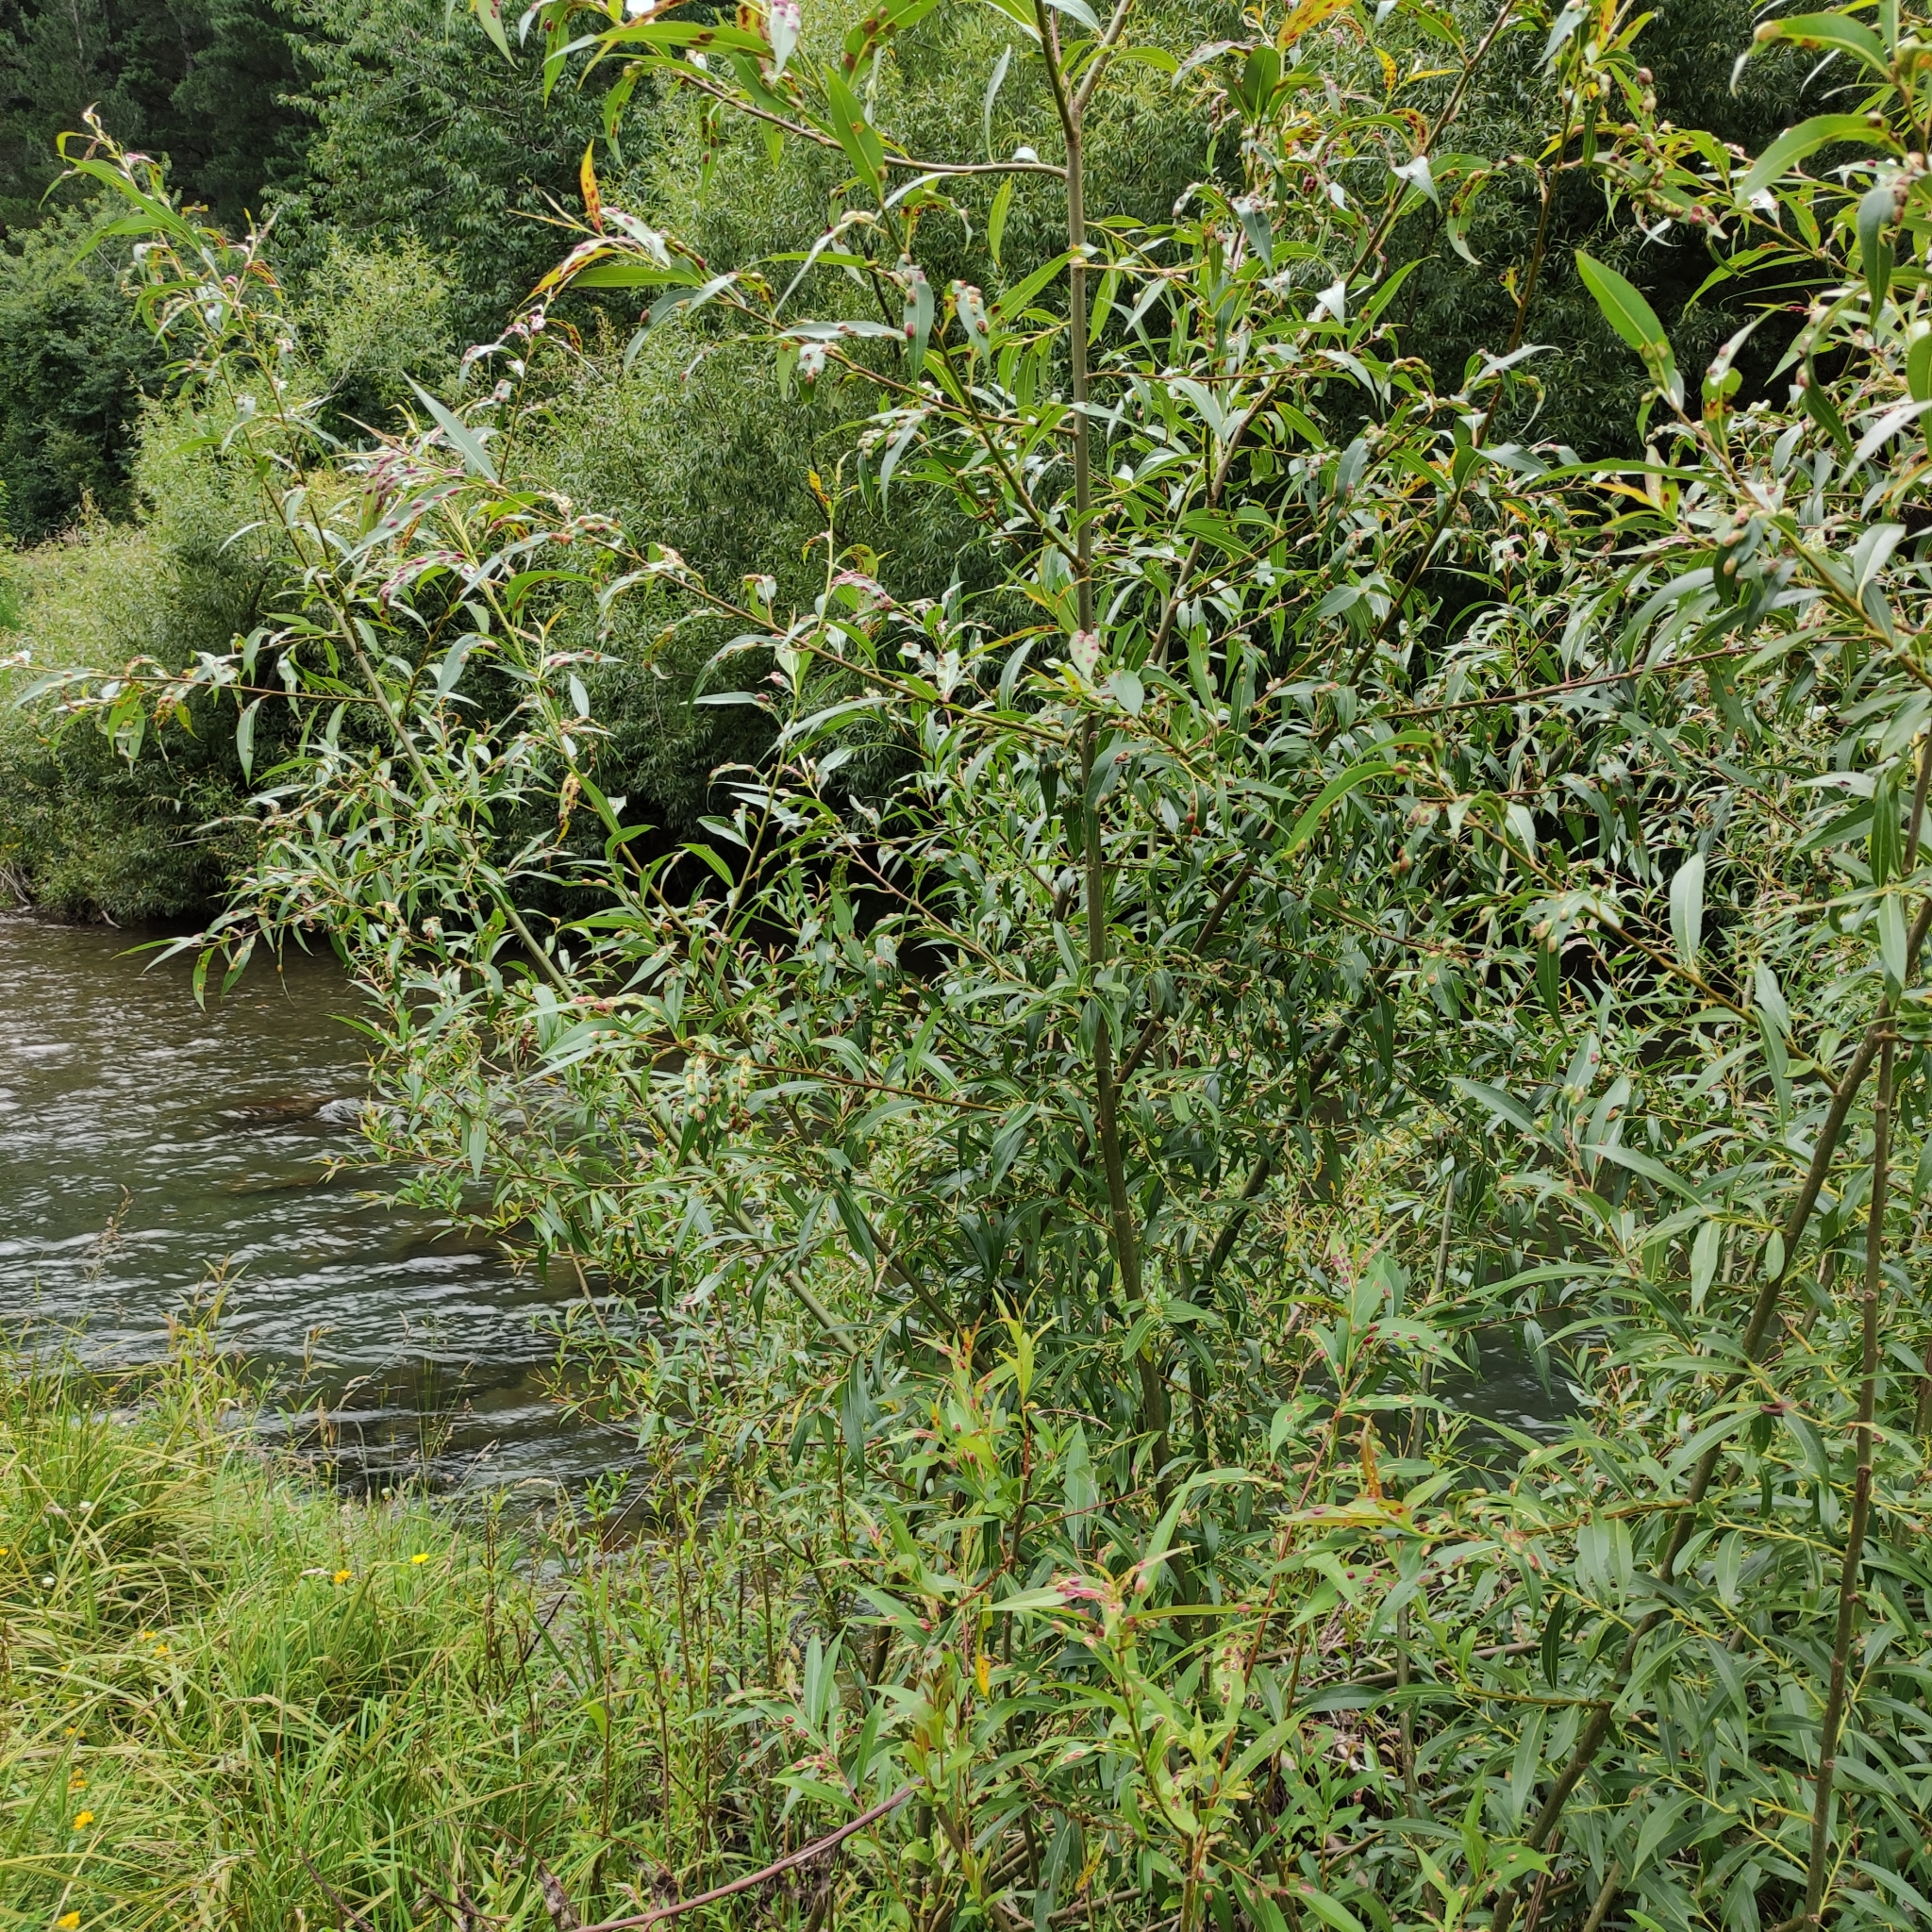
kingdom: Plantae
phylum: Tracheophyta
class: Magnoliopsida
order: Malpighiales
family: Salicaceae
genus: Salix
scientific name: Salix fragilis
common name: Crack willow
